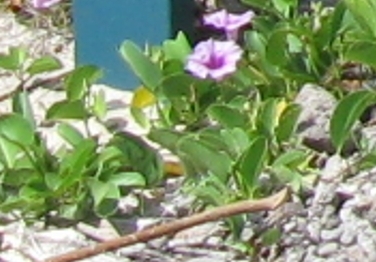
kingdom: Plantae
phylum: Tracheophyta
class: Magnoliopsida
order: Solanales
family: Convolvulaceae
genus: Ipomoea
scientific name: Ipomoea pes-caprae
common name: Beach morning glory
